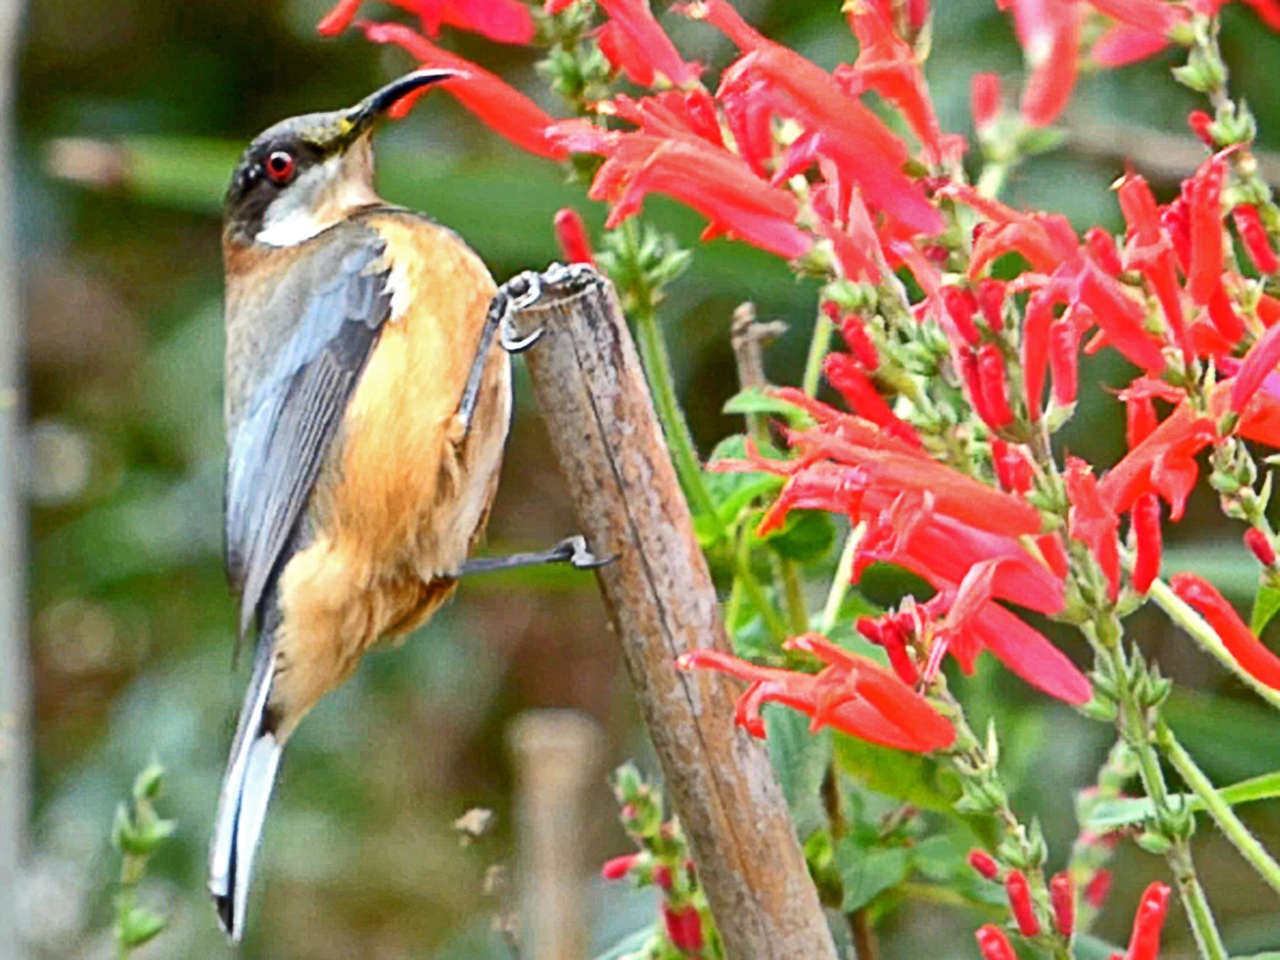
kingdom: Animalia
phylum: Chordata
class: Aves
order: Passeriformes
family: Meliphagidae
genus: Acanthorhynchus
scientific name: Acanthorhynchus tenuirostris
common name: Eastern spinebill
